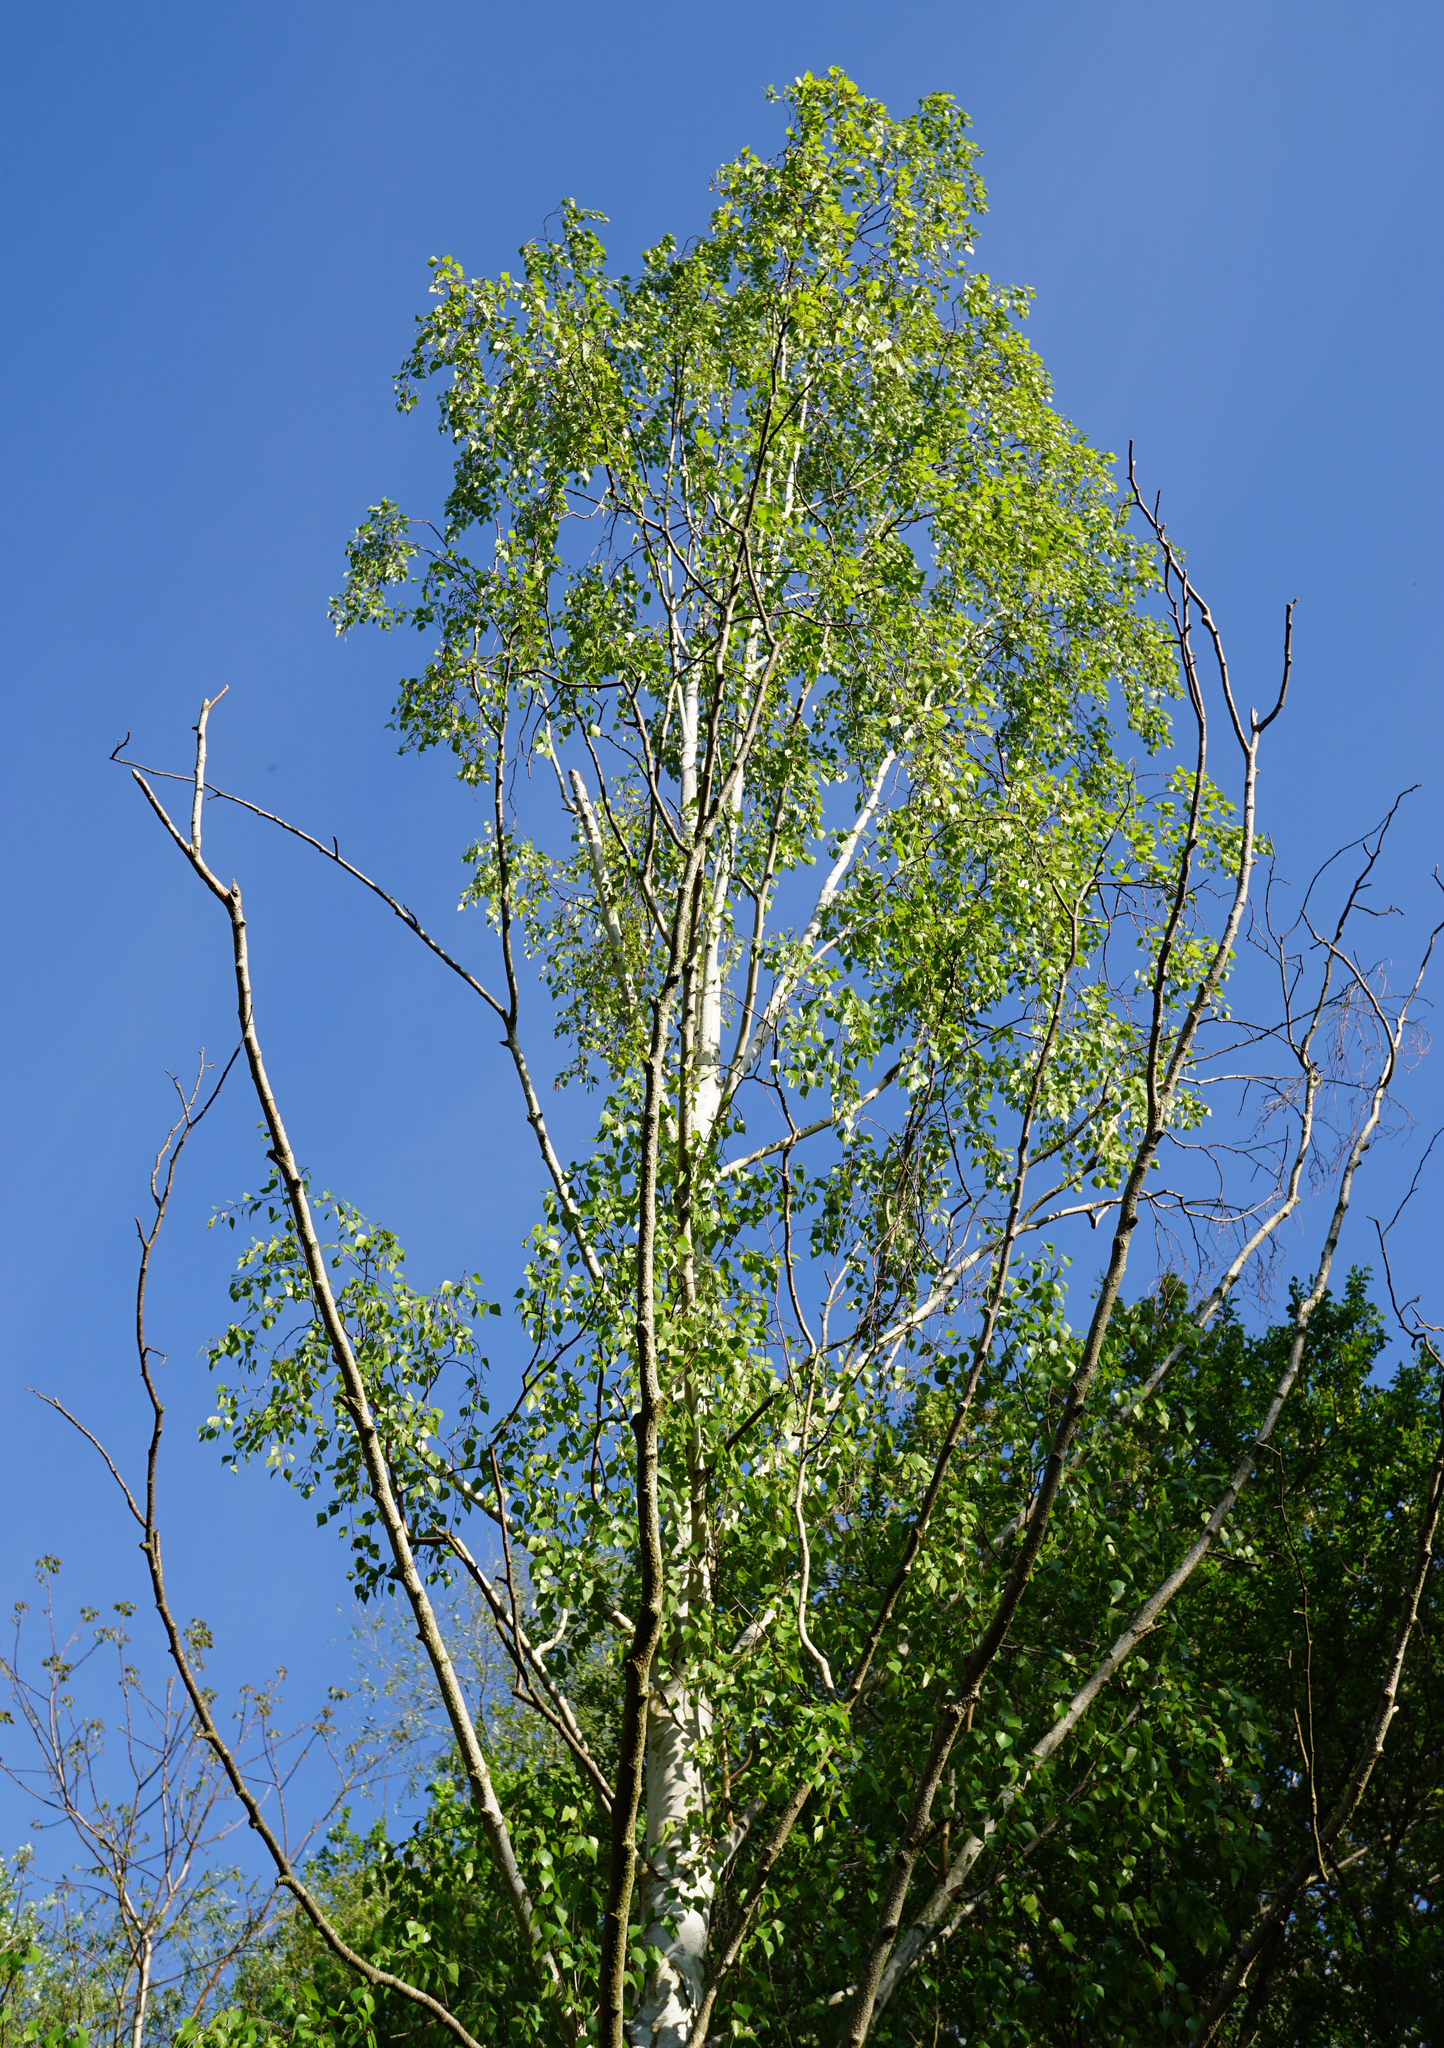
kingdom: Plantae
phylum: Tracheophyta
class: Magnoliopsida
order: Fagales
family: Betulaceae
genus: Betula
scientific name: Betula pendula
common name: Silver birch
